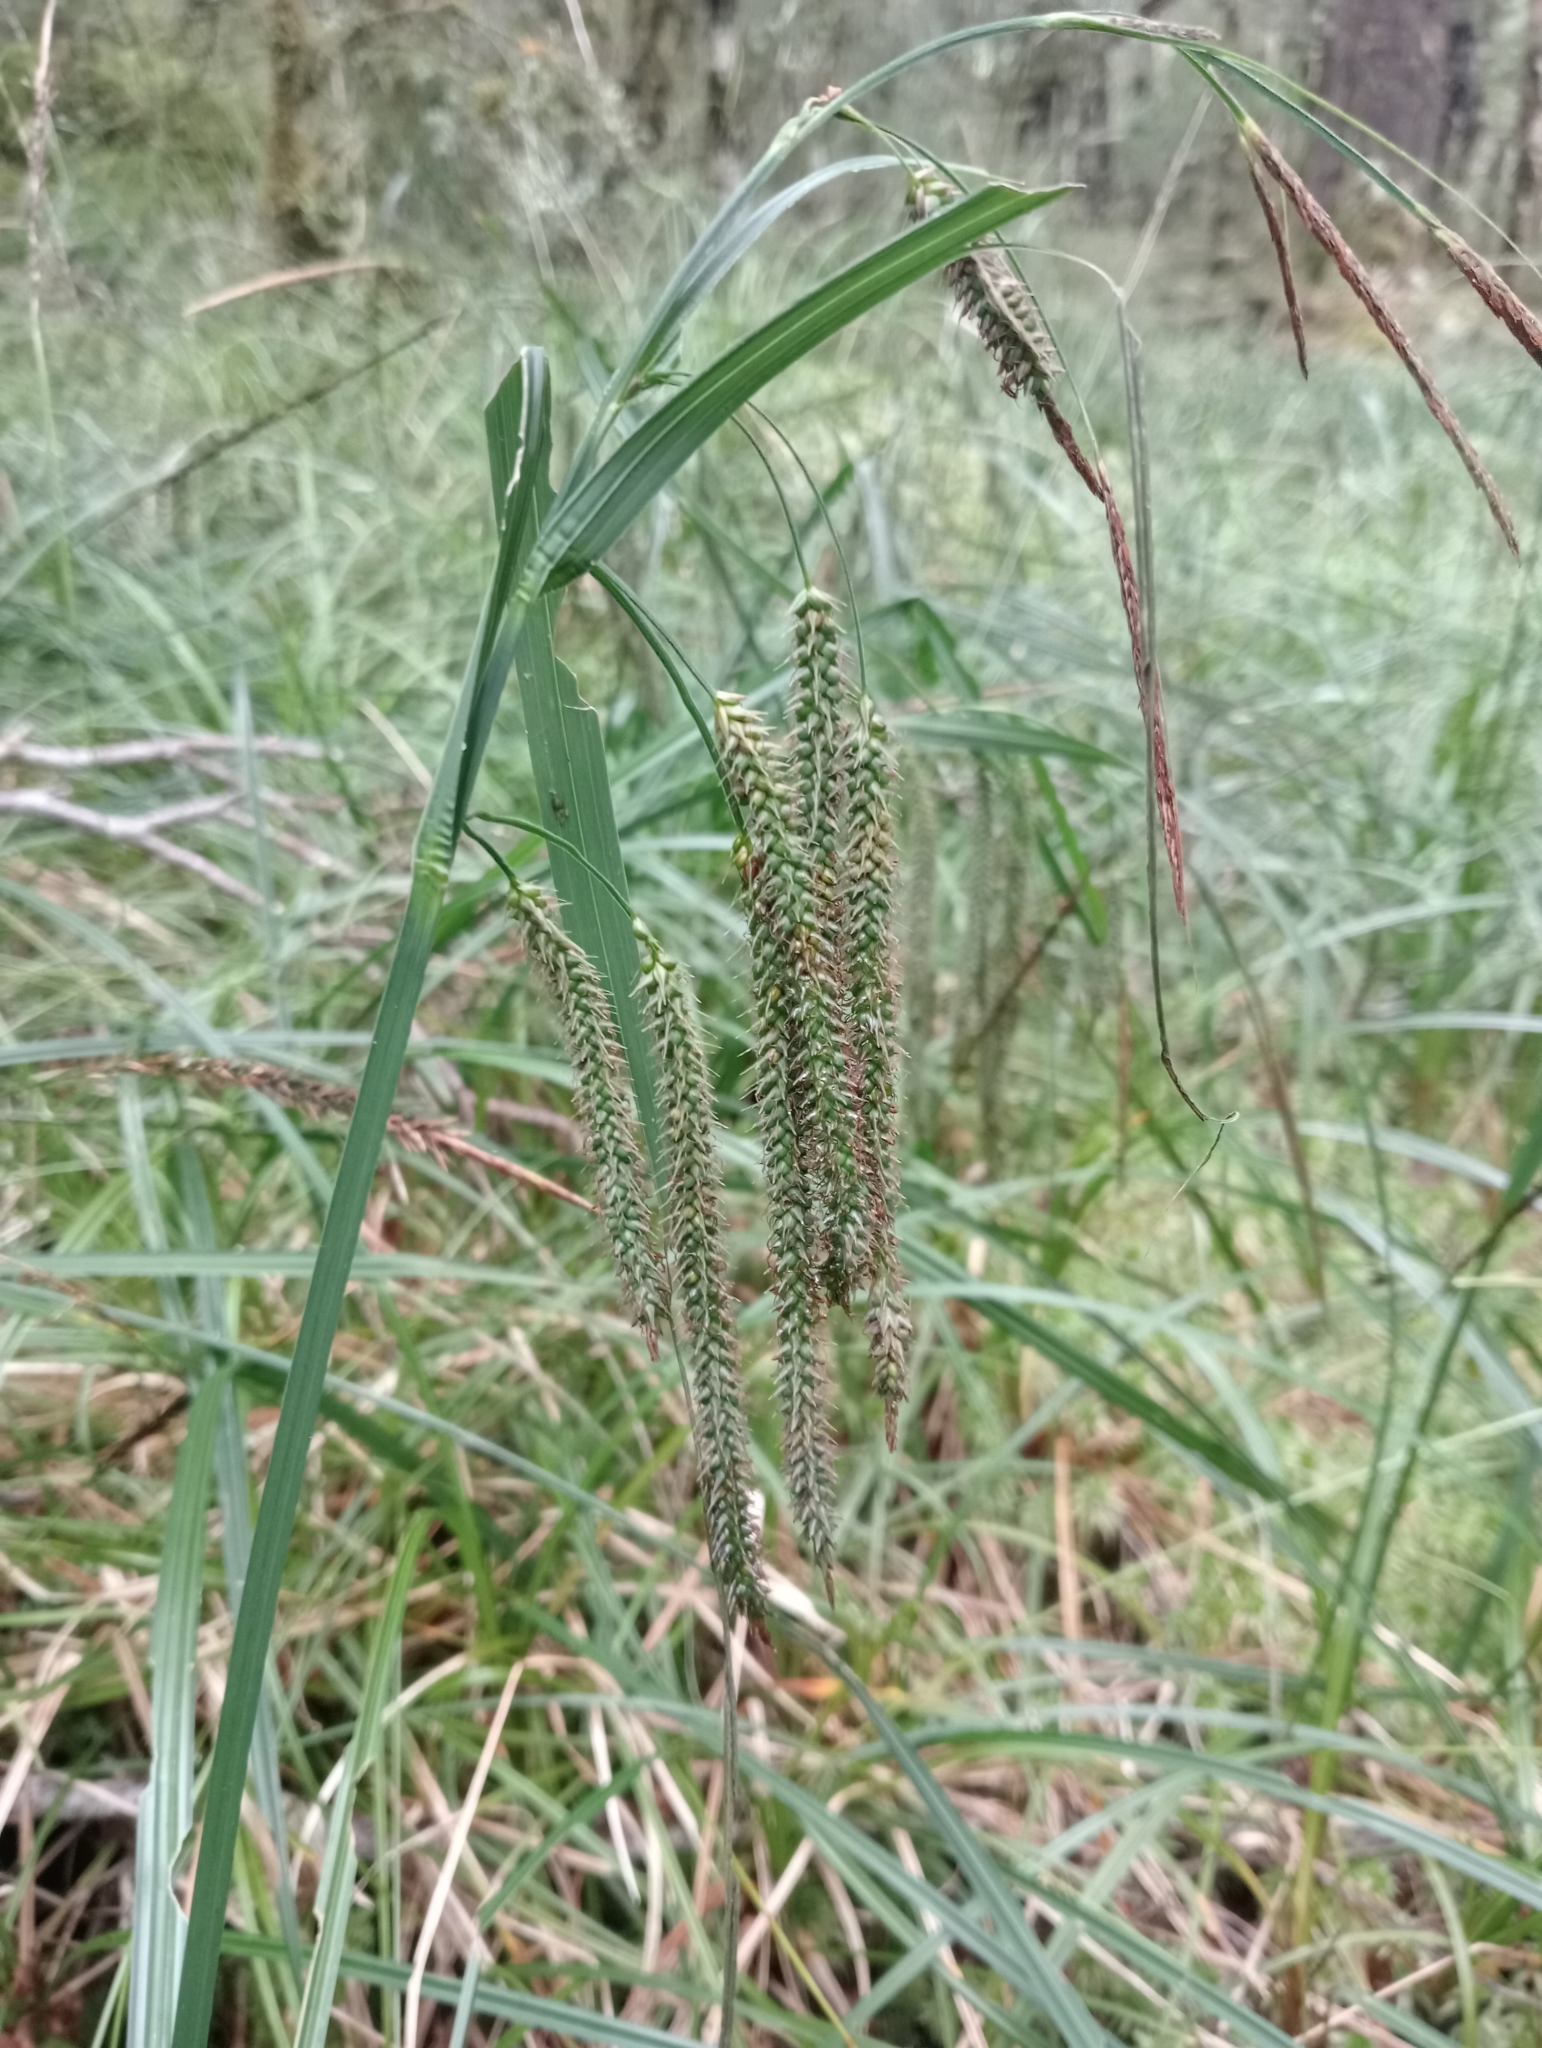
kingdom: Plantae
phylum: Tracheophyta
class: Liliopsida
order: Poales
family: Cyperaceae
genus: Carex
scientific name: Carex geminata
